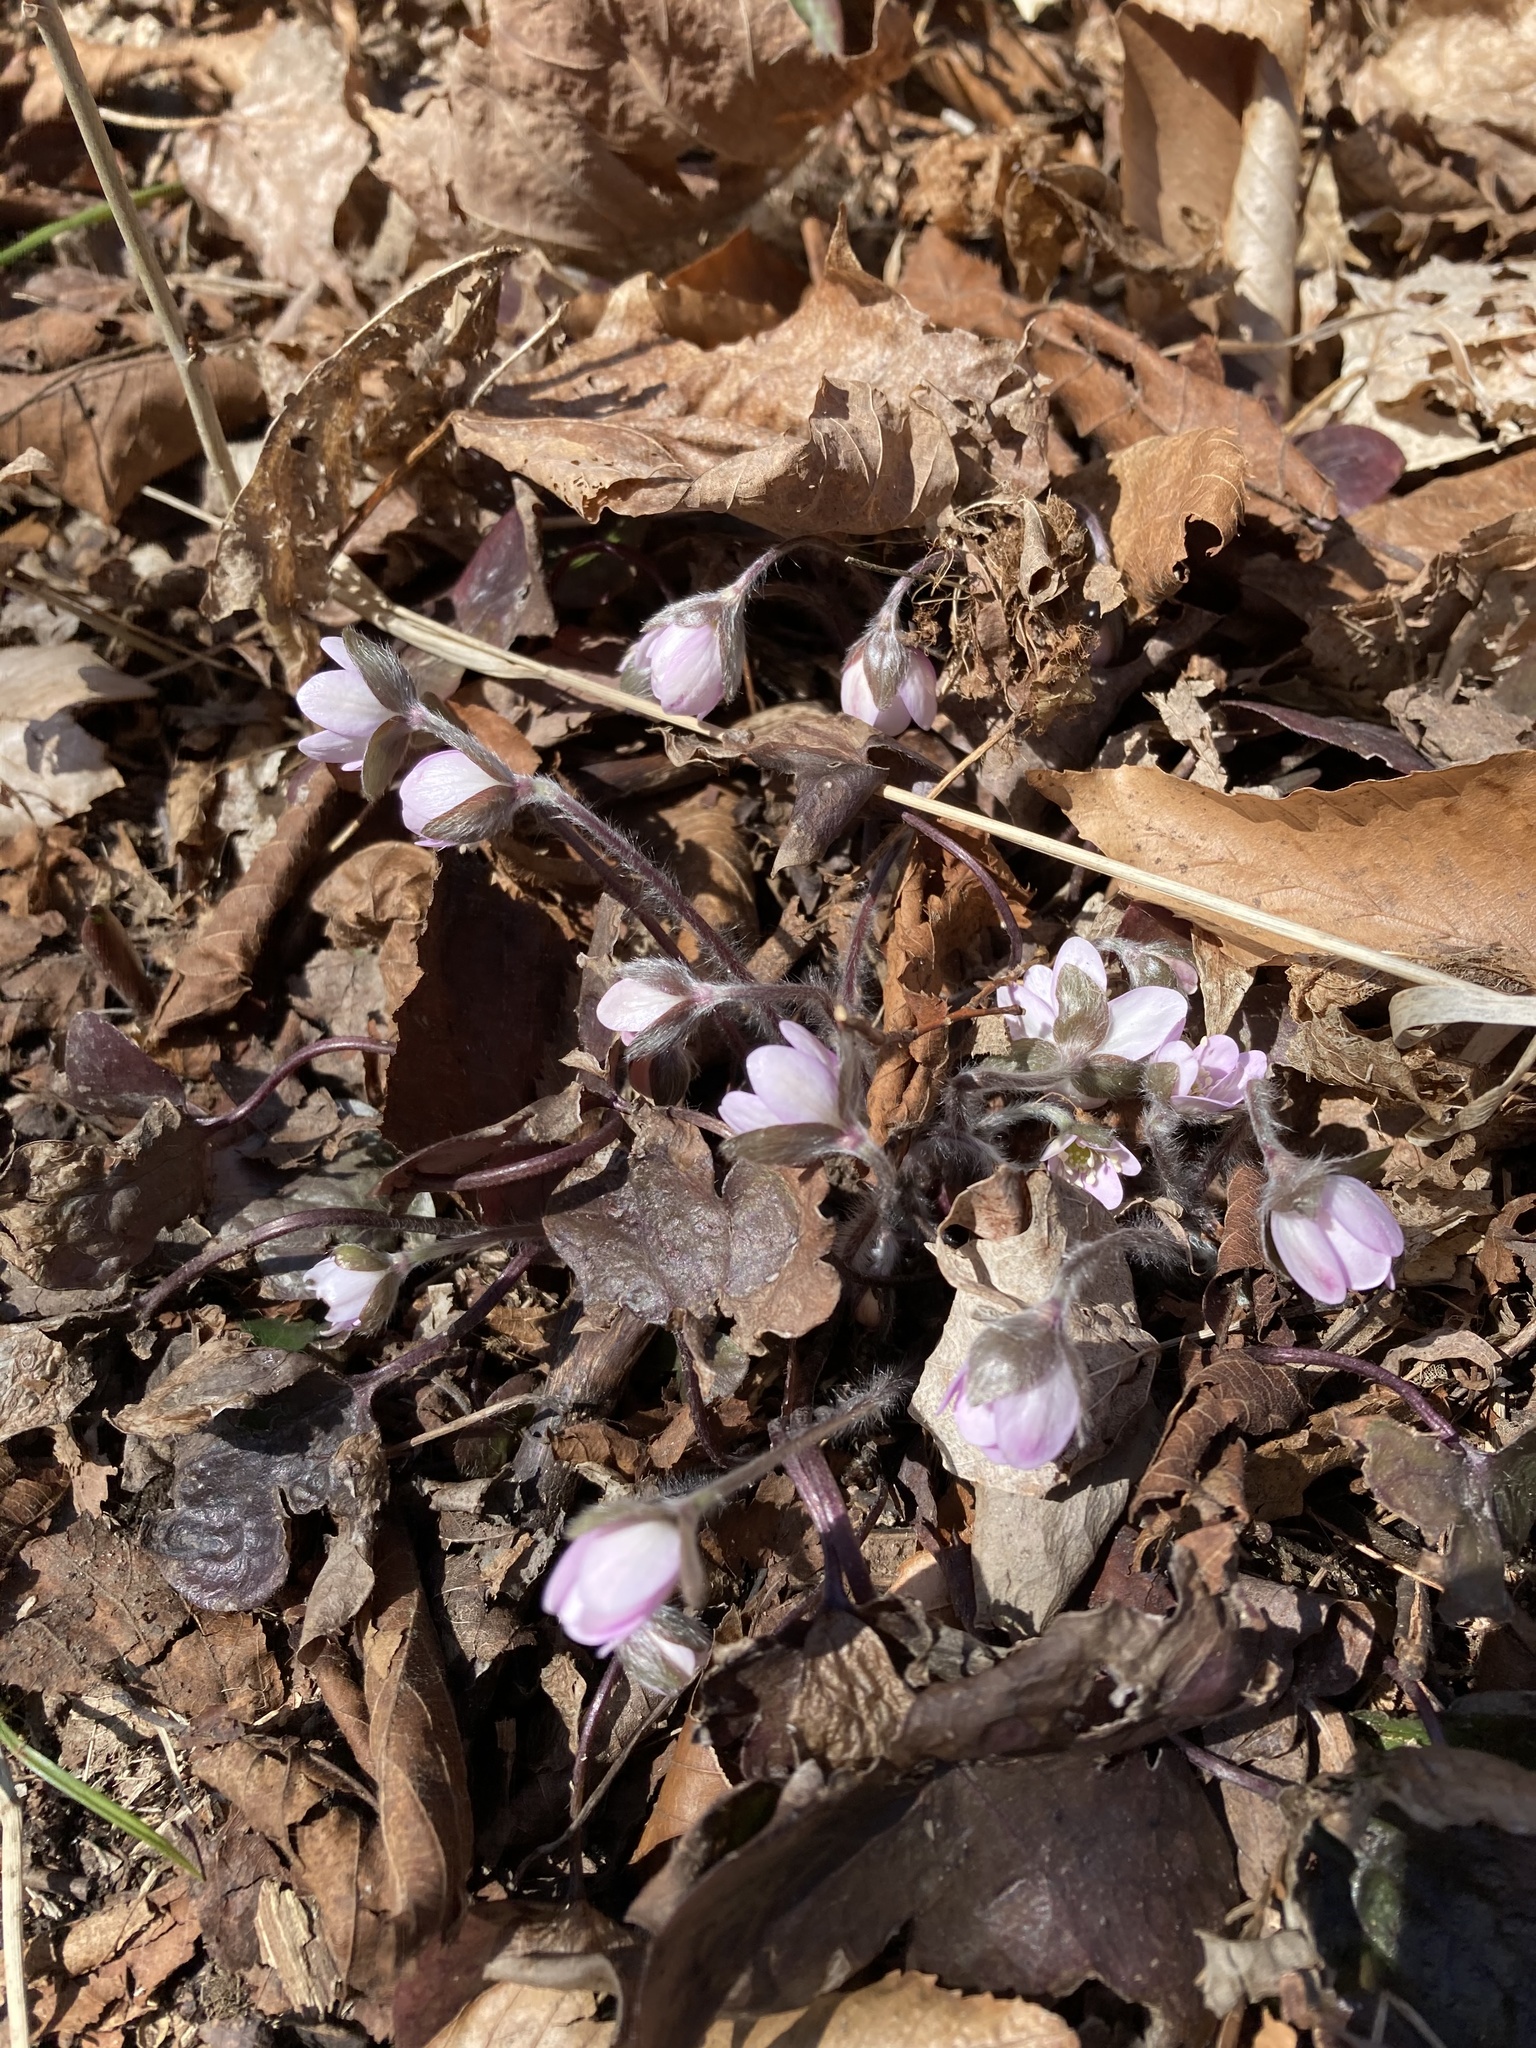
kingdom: Plantae
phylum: Tracheophyta
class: Magnoliopsida
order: Ranunculales
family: Ranunculaceae
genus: Hepatica
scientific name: Hepatica acutiloba
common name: Sharp-lobed hepatica
